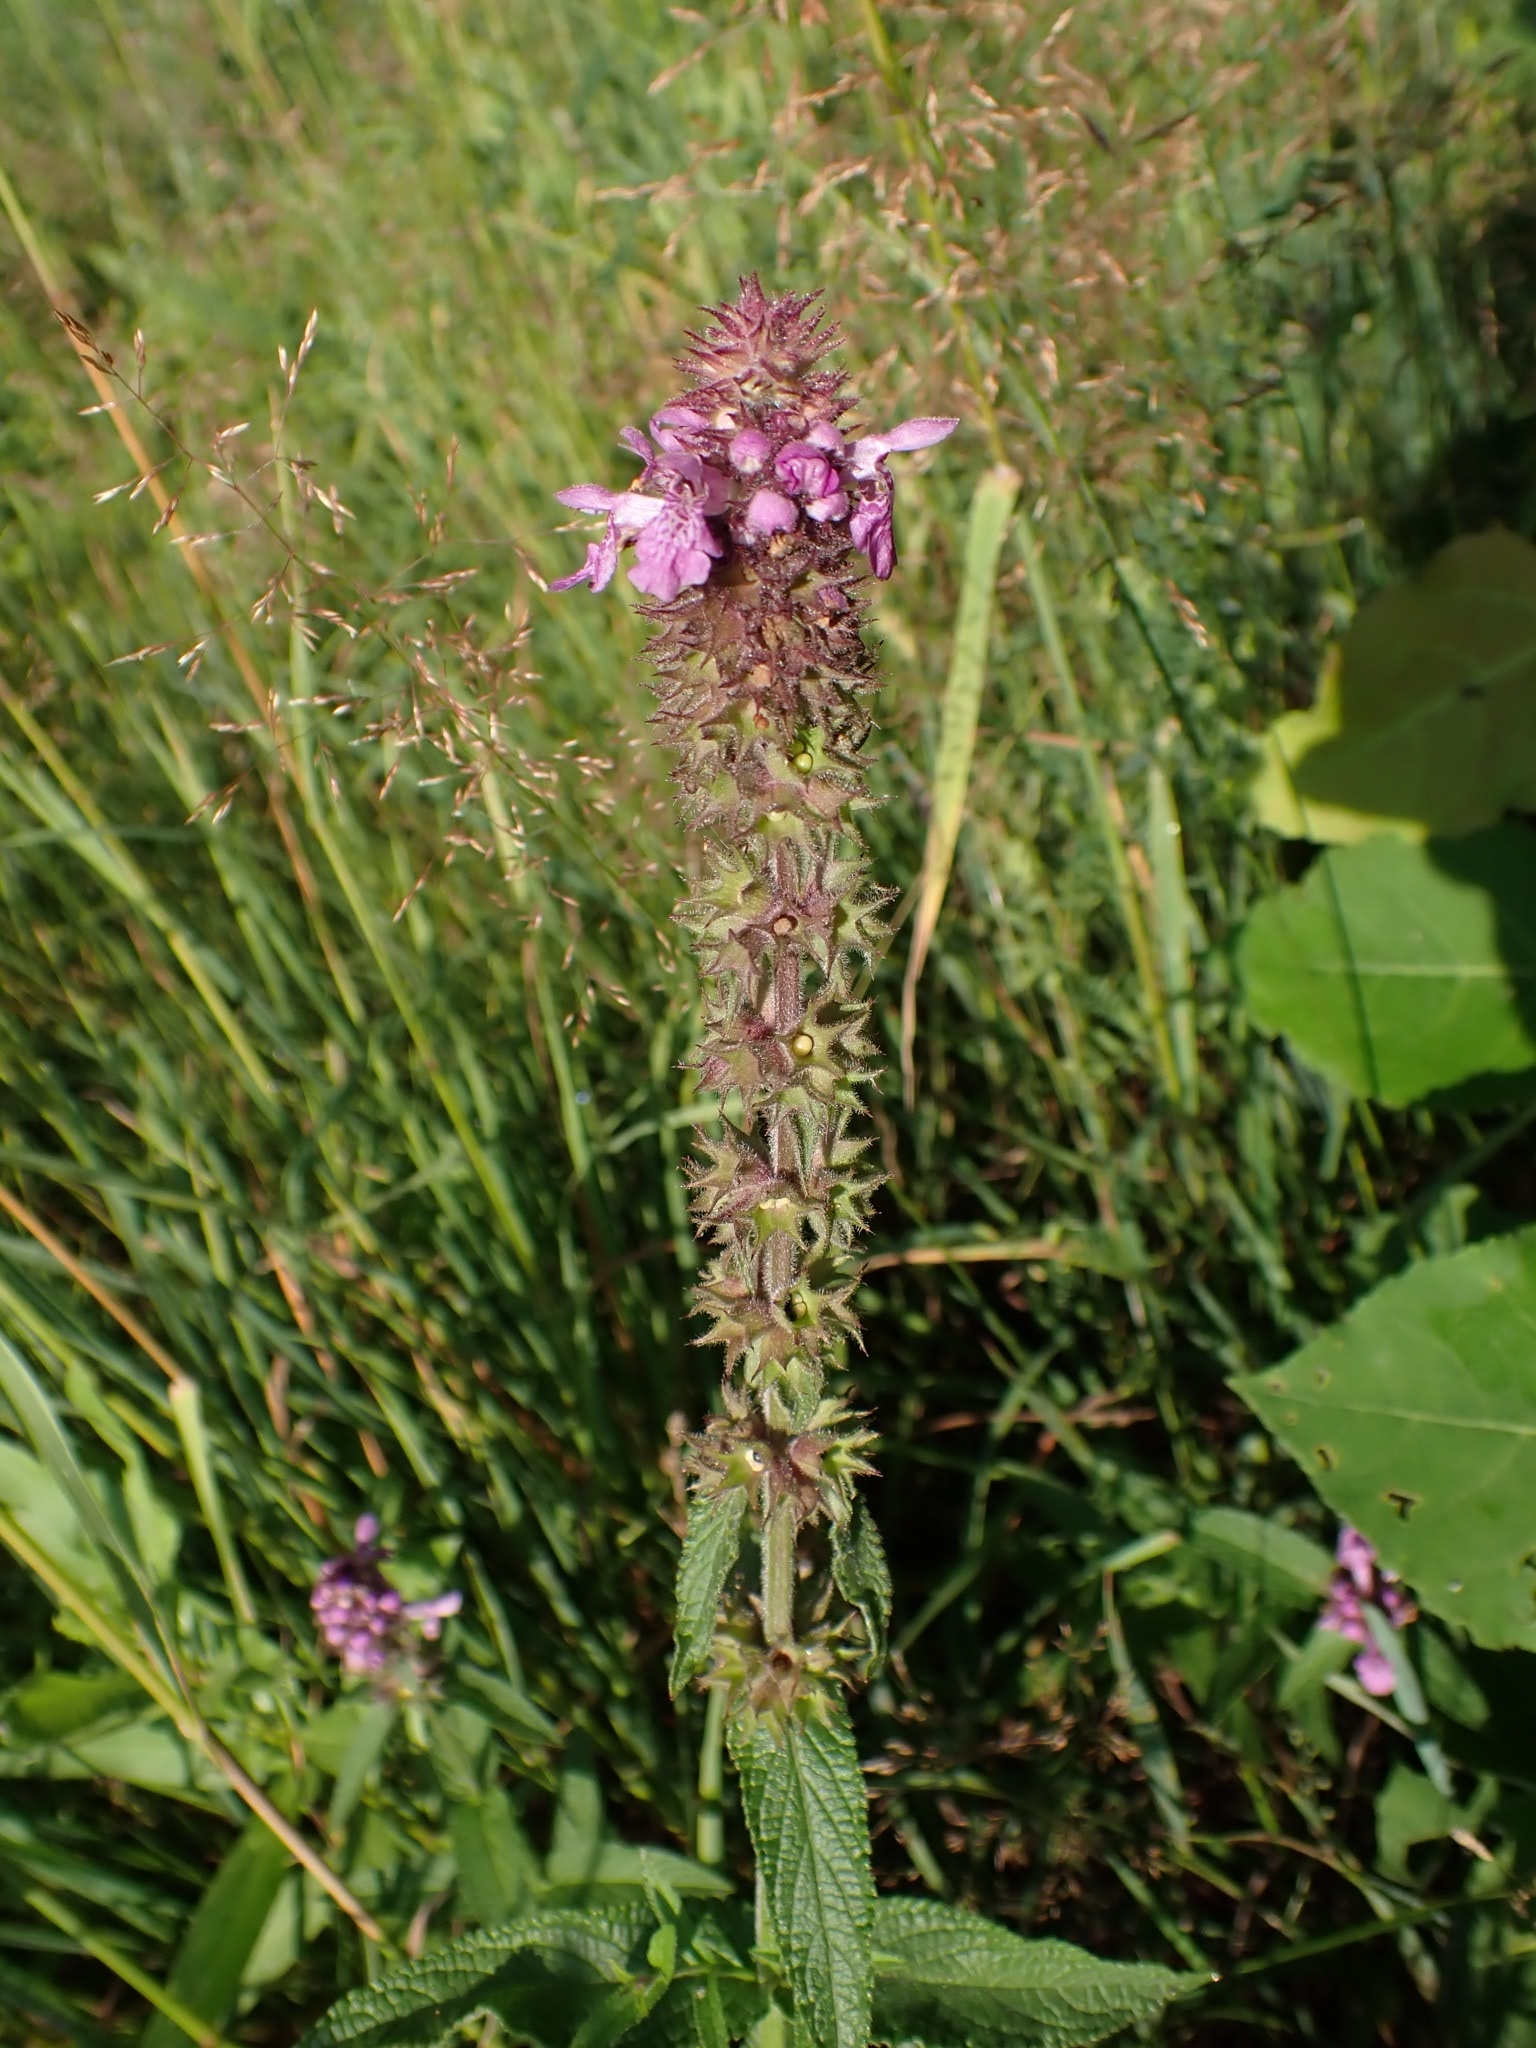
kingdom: Plantae
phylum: Tracheophyta
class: Magnoliopsida
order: Lamiales
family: Lamiaceae
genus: Stachys
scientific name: Stachys palustris
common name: Marsh woundwort
